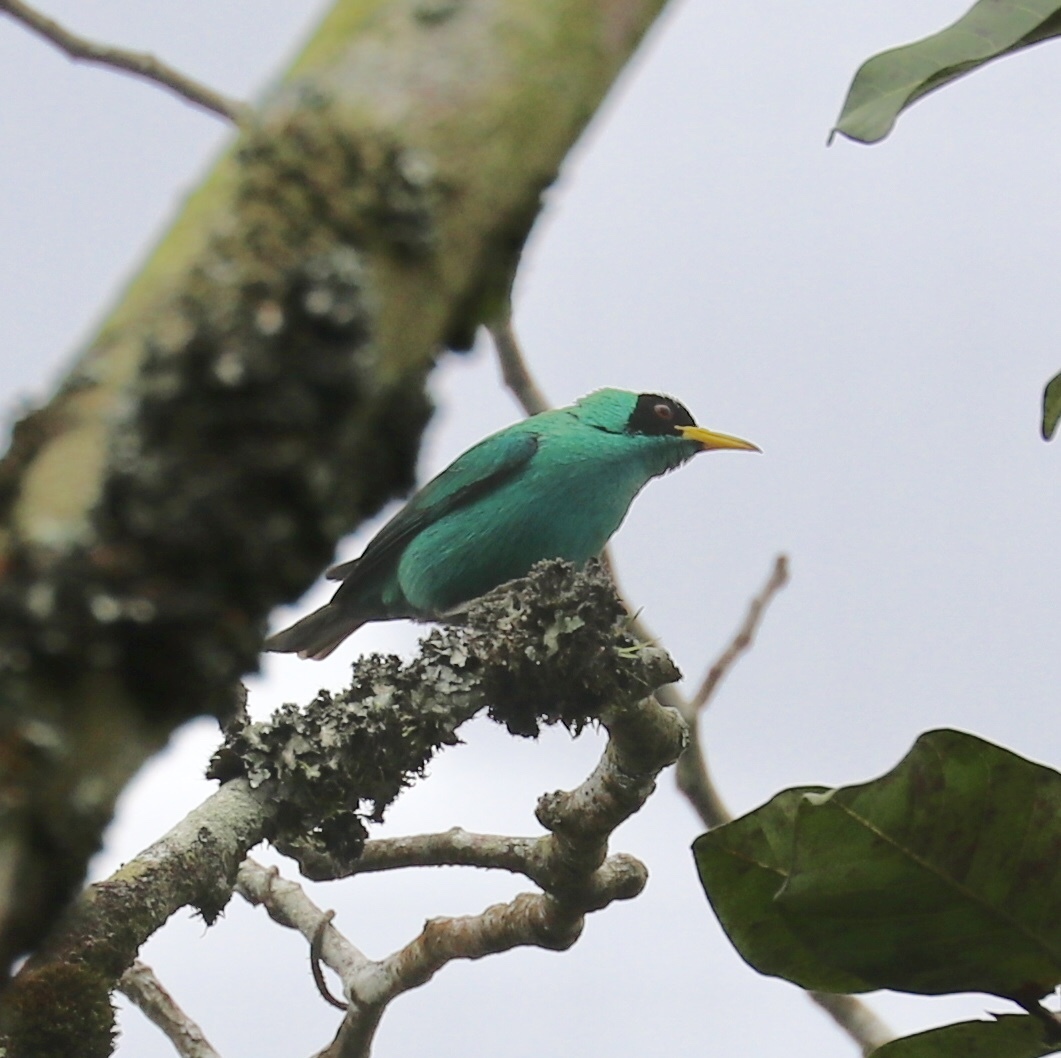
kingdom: Animalia
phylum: Chordata
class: Aves
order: Passeriformes
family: Thraupidae
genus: Chlorophanes
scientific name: Chlorophanes spiza
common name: Green honeycreeper
